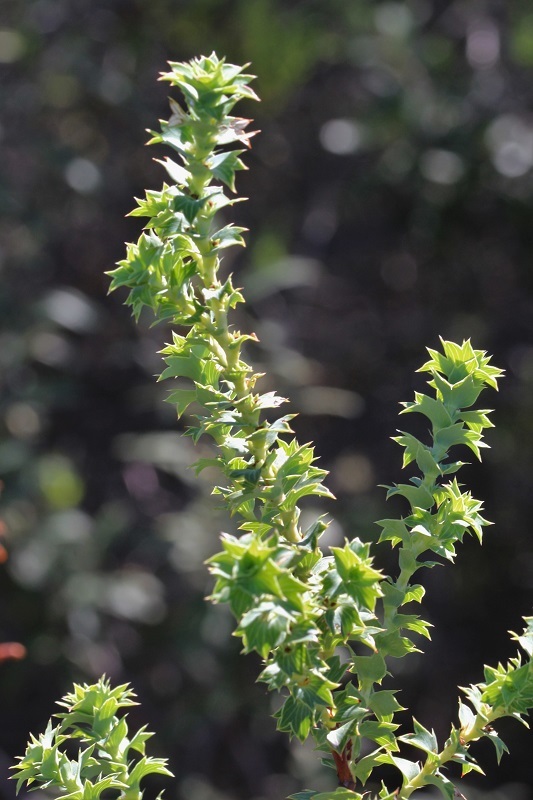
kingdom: Plantae
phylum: Tracheophyta
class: Magnoliopsida
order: Rosales
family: Rosaceae
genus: Cliffortia
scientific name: Cliffortia ilicifolia
